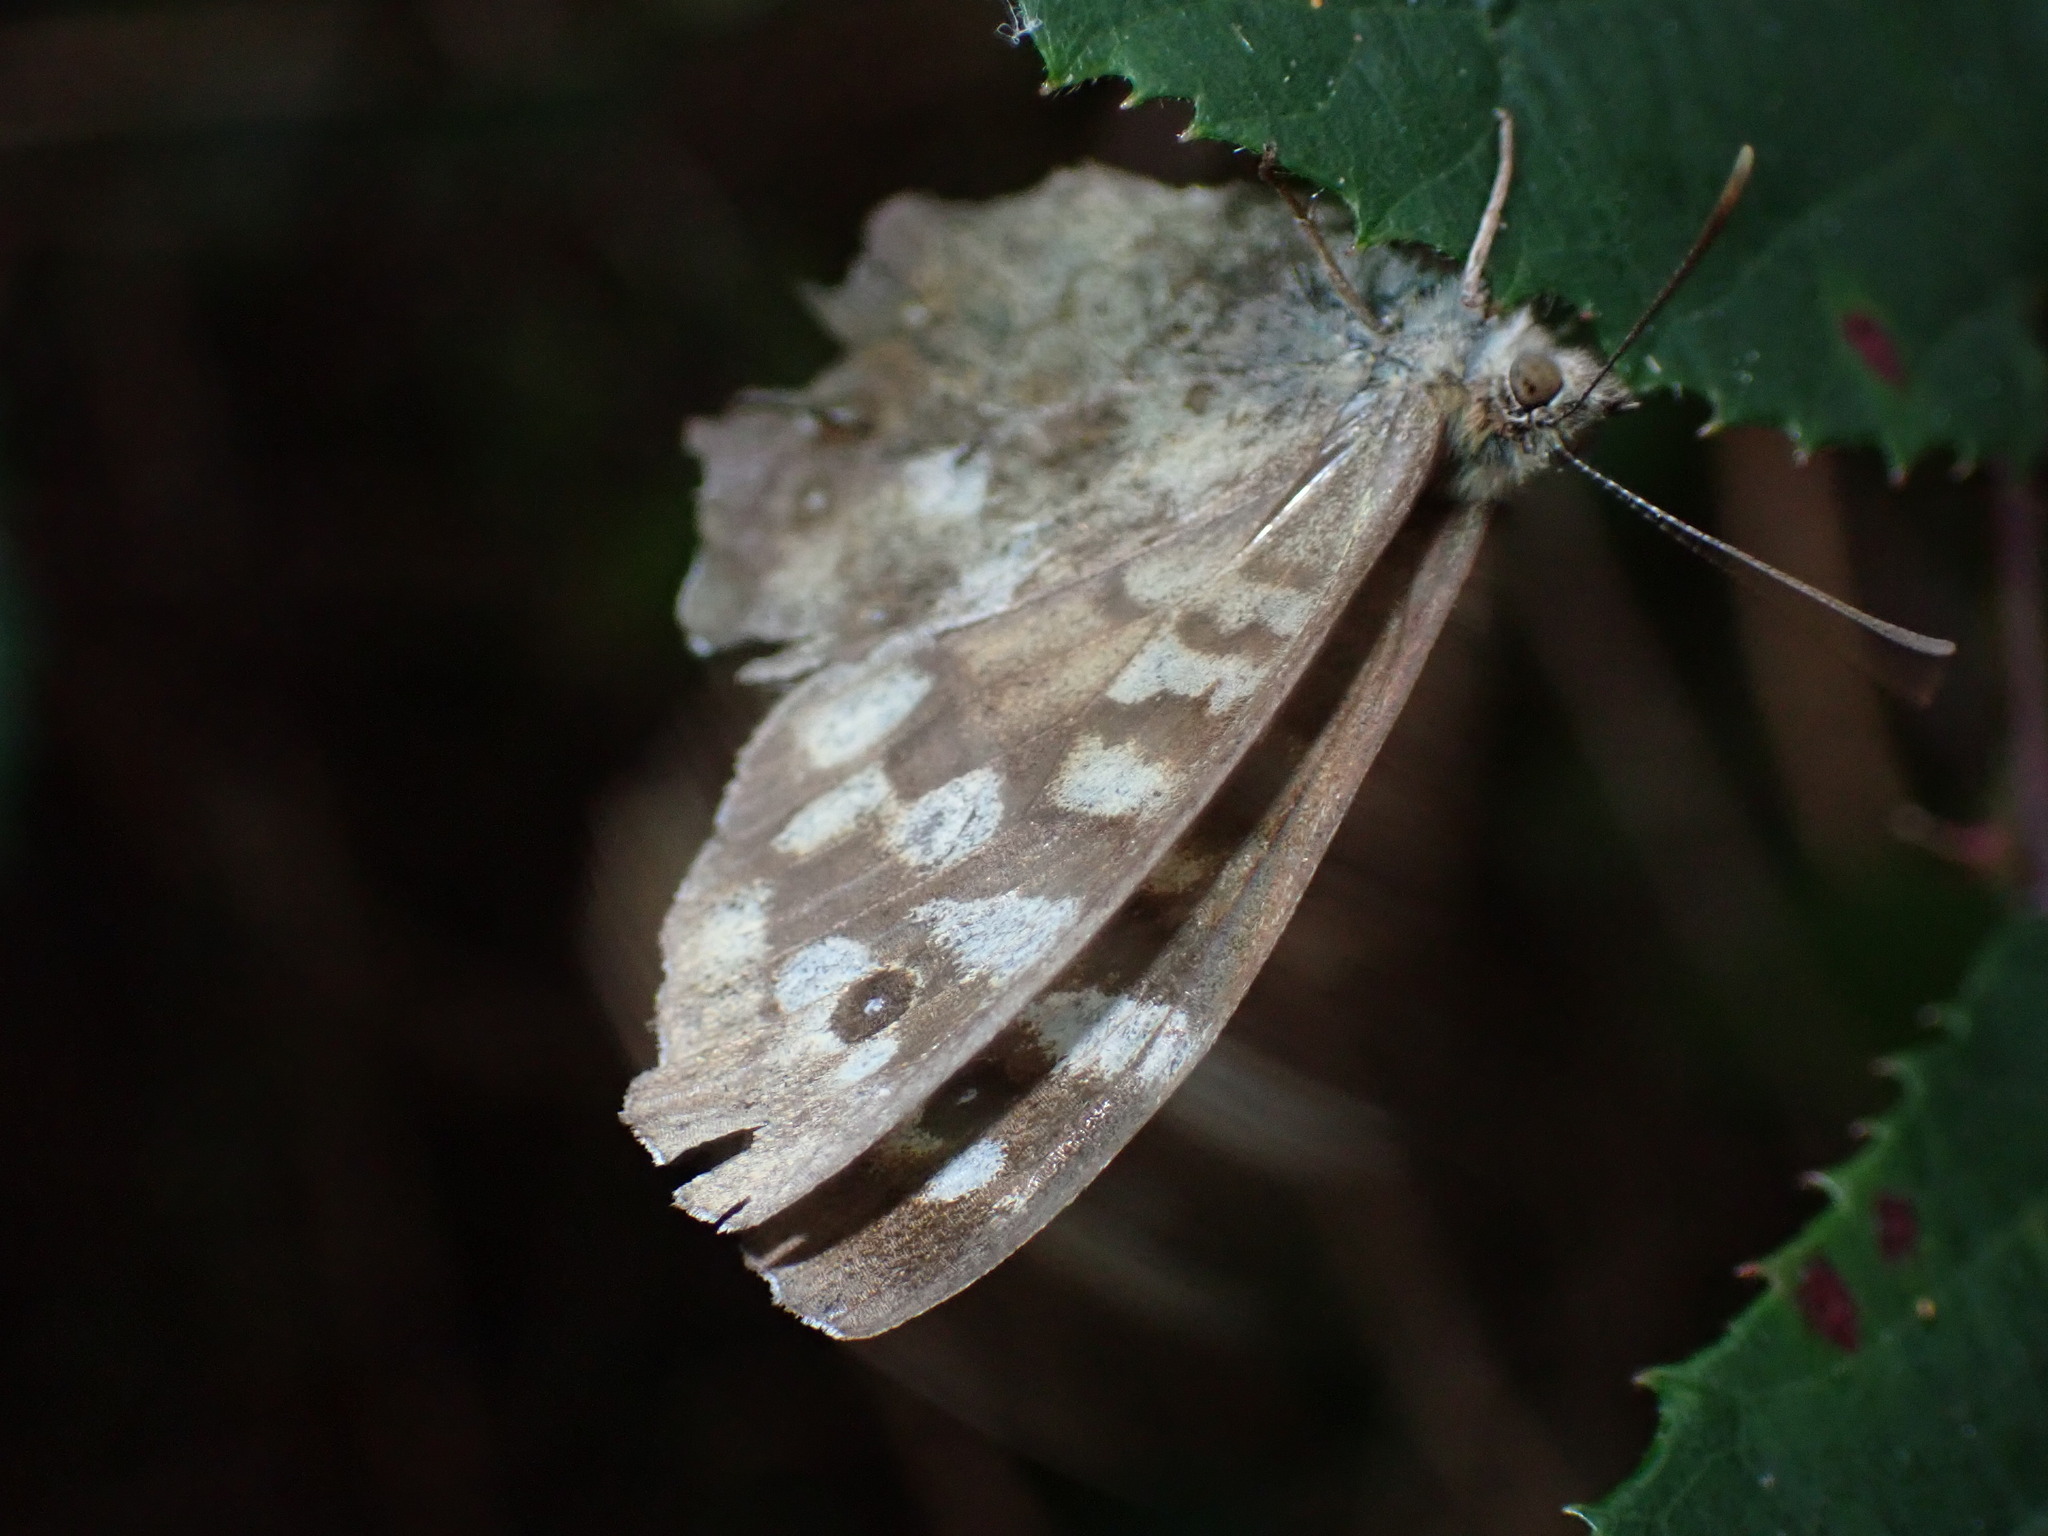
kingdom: Animalia
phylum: Arthropoda
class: Insecta
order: Lepidoptera
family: Nymphalidae
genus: Pararge
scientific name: Pararge aegeria
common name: Speckled wood
